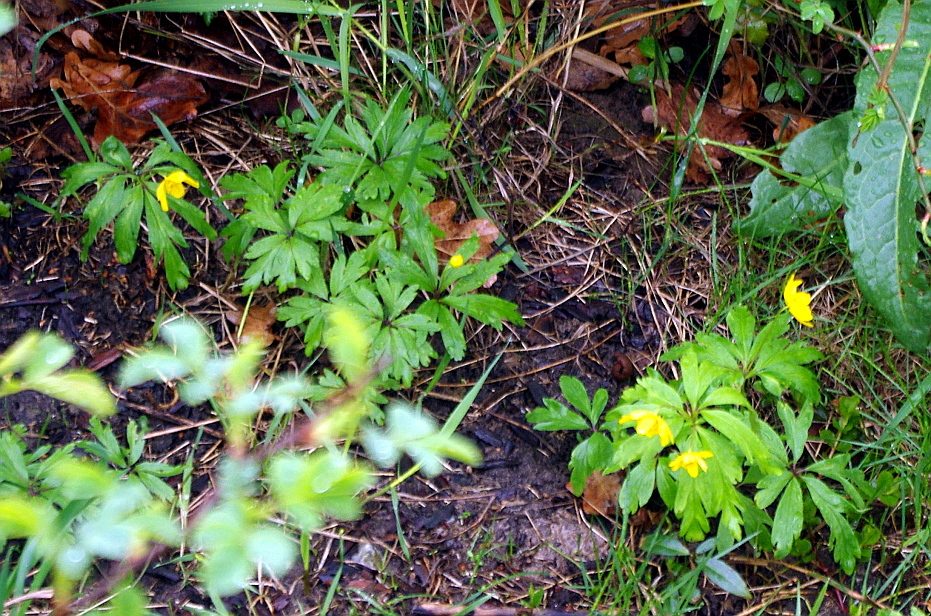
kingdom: Plantae
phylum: Tracheophyta
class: Magnoliopsida
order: Ranunculales
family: Ranunculaceae
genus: Anemone
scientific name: Anemone ranunculoides
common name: Yellow anemone
